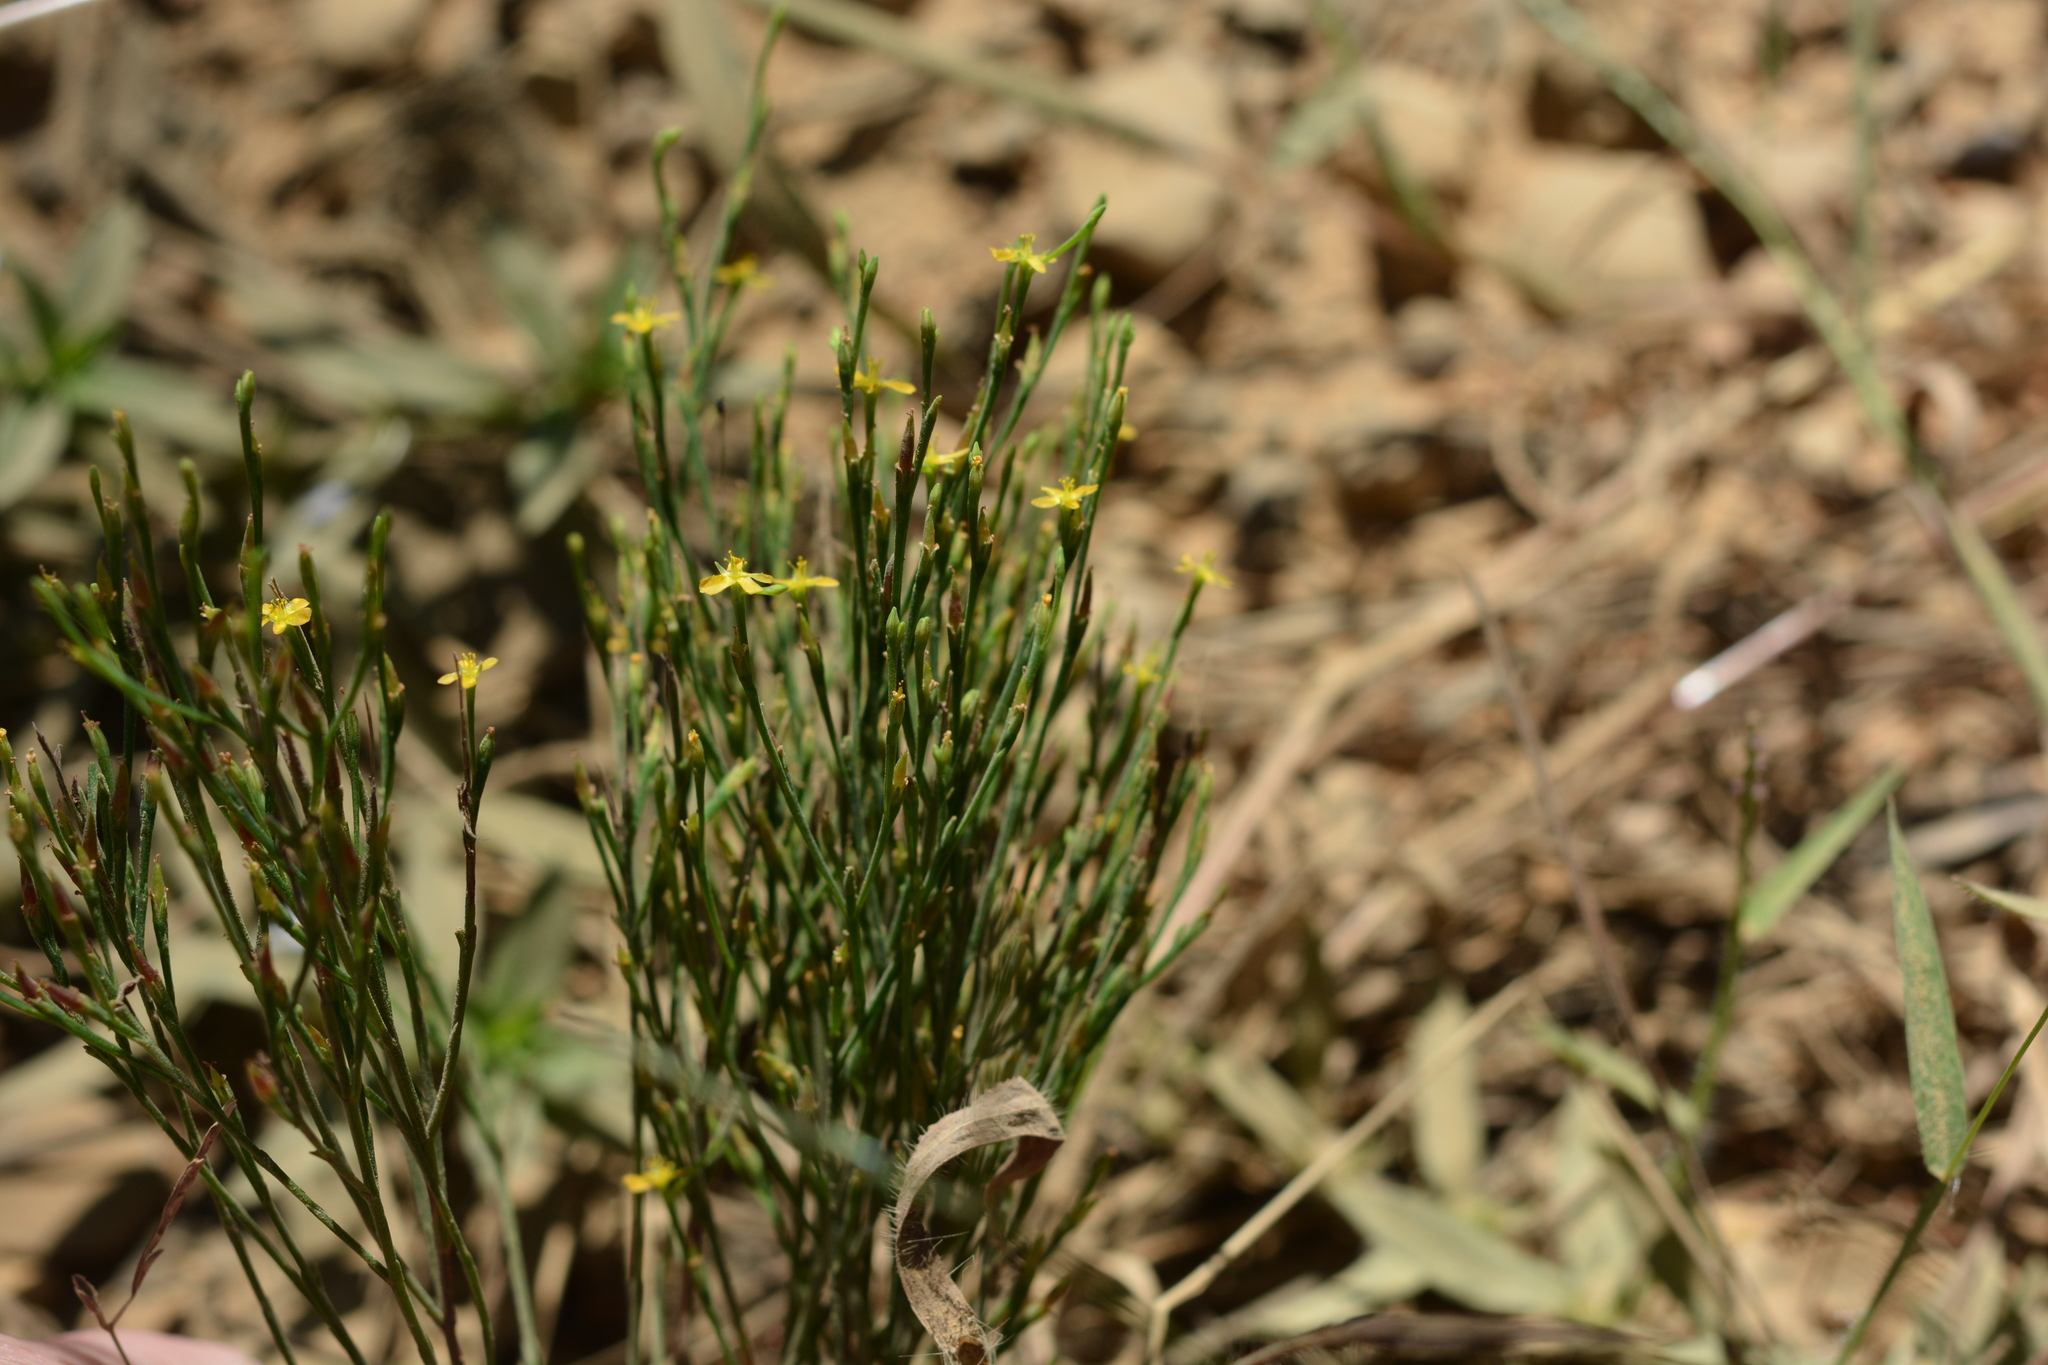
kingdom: Plantae
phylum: Tracheophyta
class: Magnoliopsida
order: Malpighiales
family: Hypericaceae
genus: Hypericum
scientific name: Hypericum gentianoides
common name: Gentian-leaved st. john's-wort
